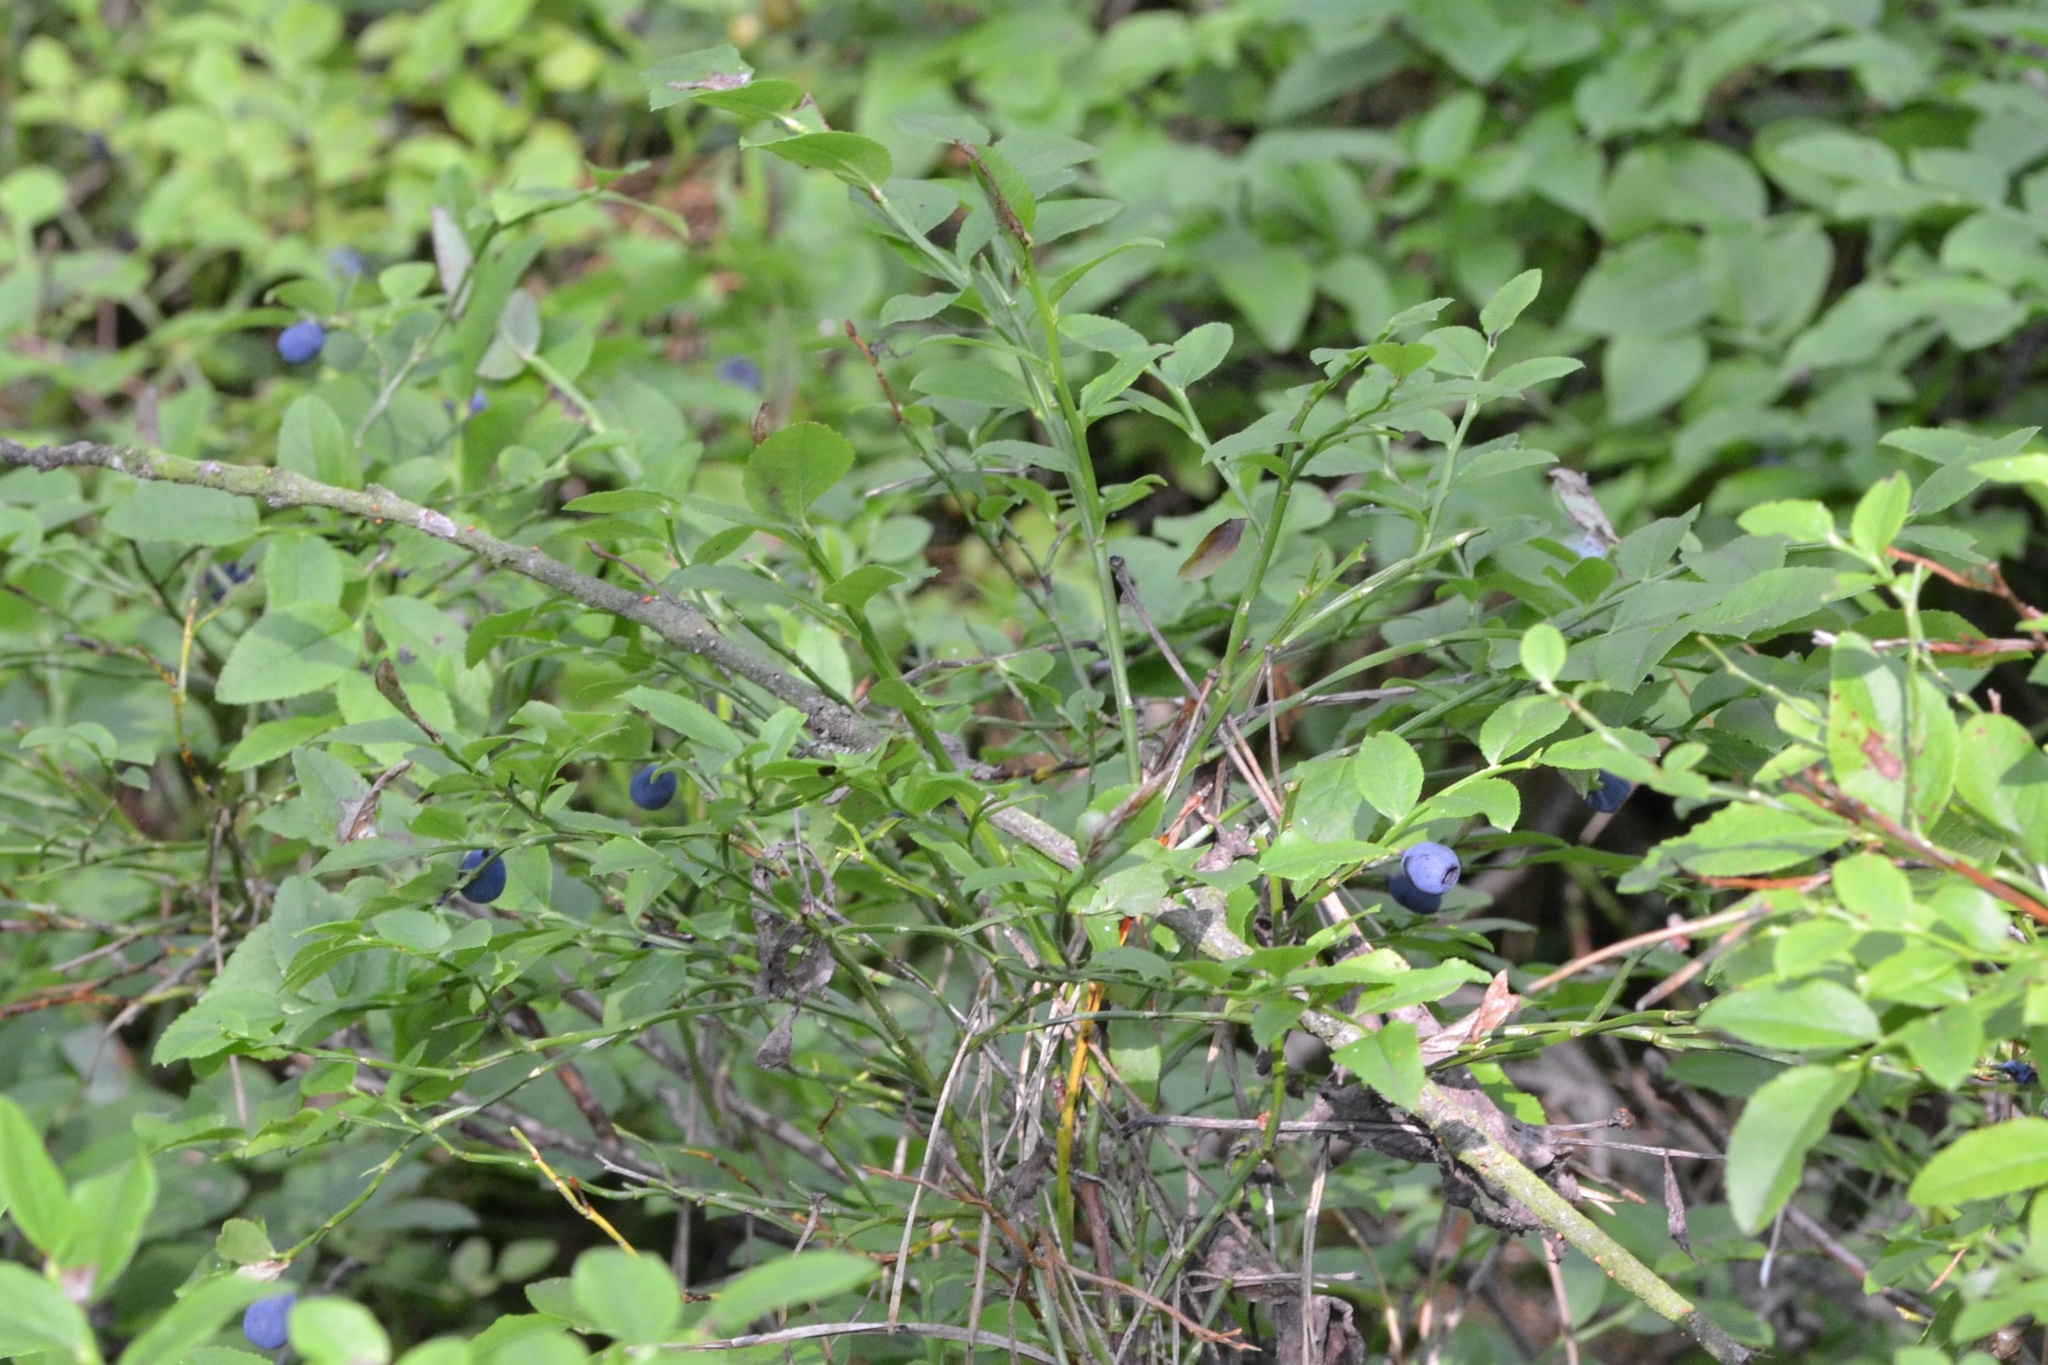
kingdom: Plantae
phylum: Tracheophyta
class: Magnoliopsida
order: Ericales
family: Ericaceae
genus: Vaccinium
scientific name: Vaccinium myrtillus
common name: Bilberry
